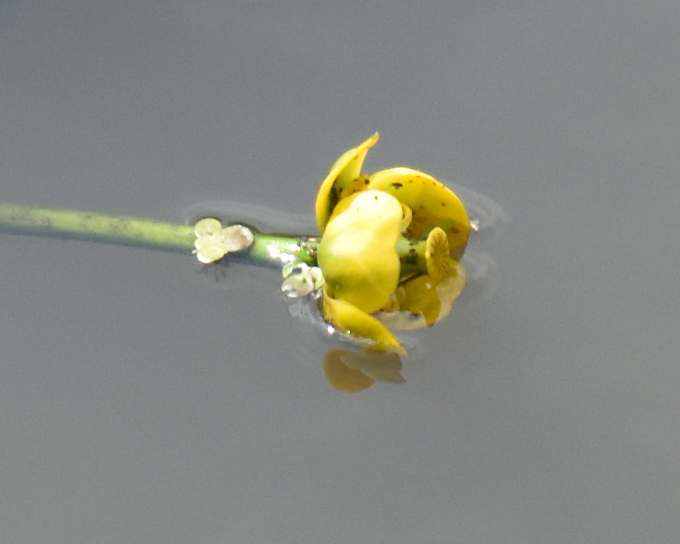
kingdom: Plantae
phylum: Tracheophyta
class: Magnoliopsida
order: Nymphaeales
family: Nymphaeaceae
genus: Nuphar
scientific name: Nuphar lutea
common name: Yellow water-lily
